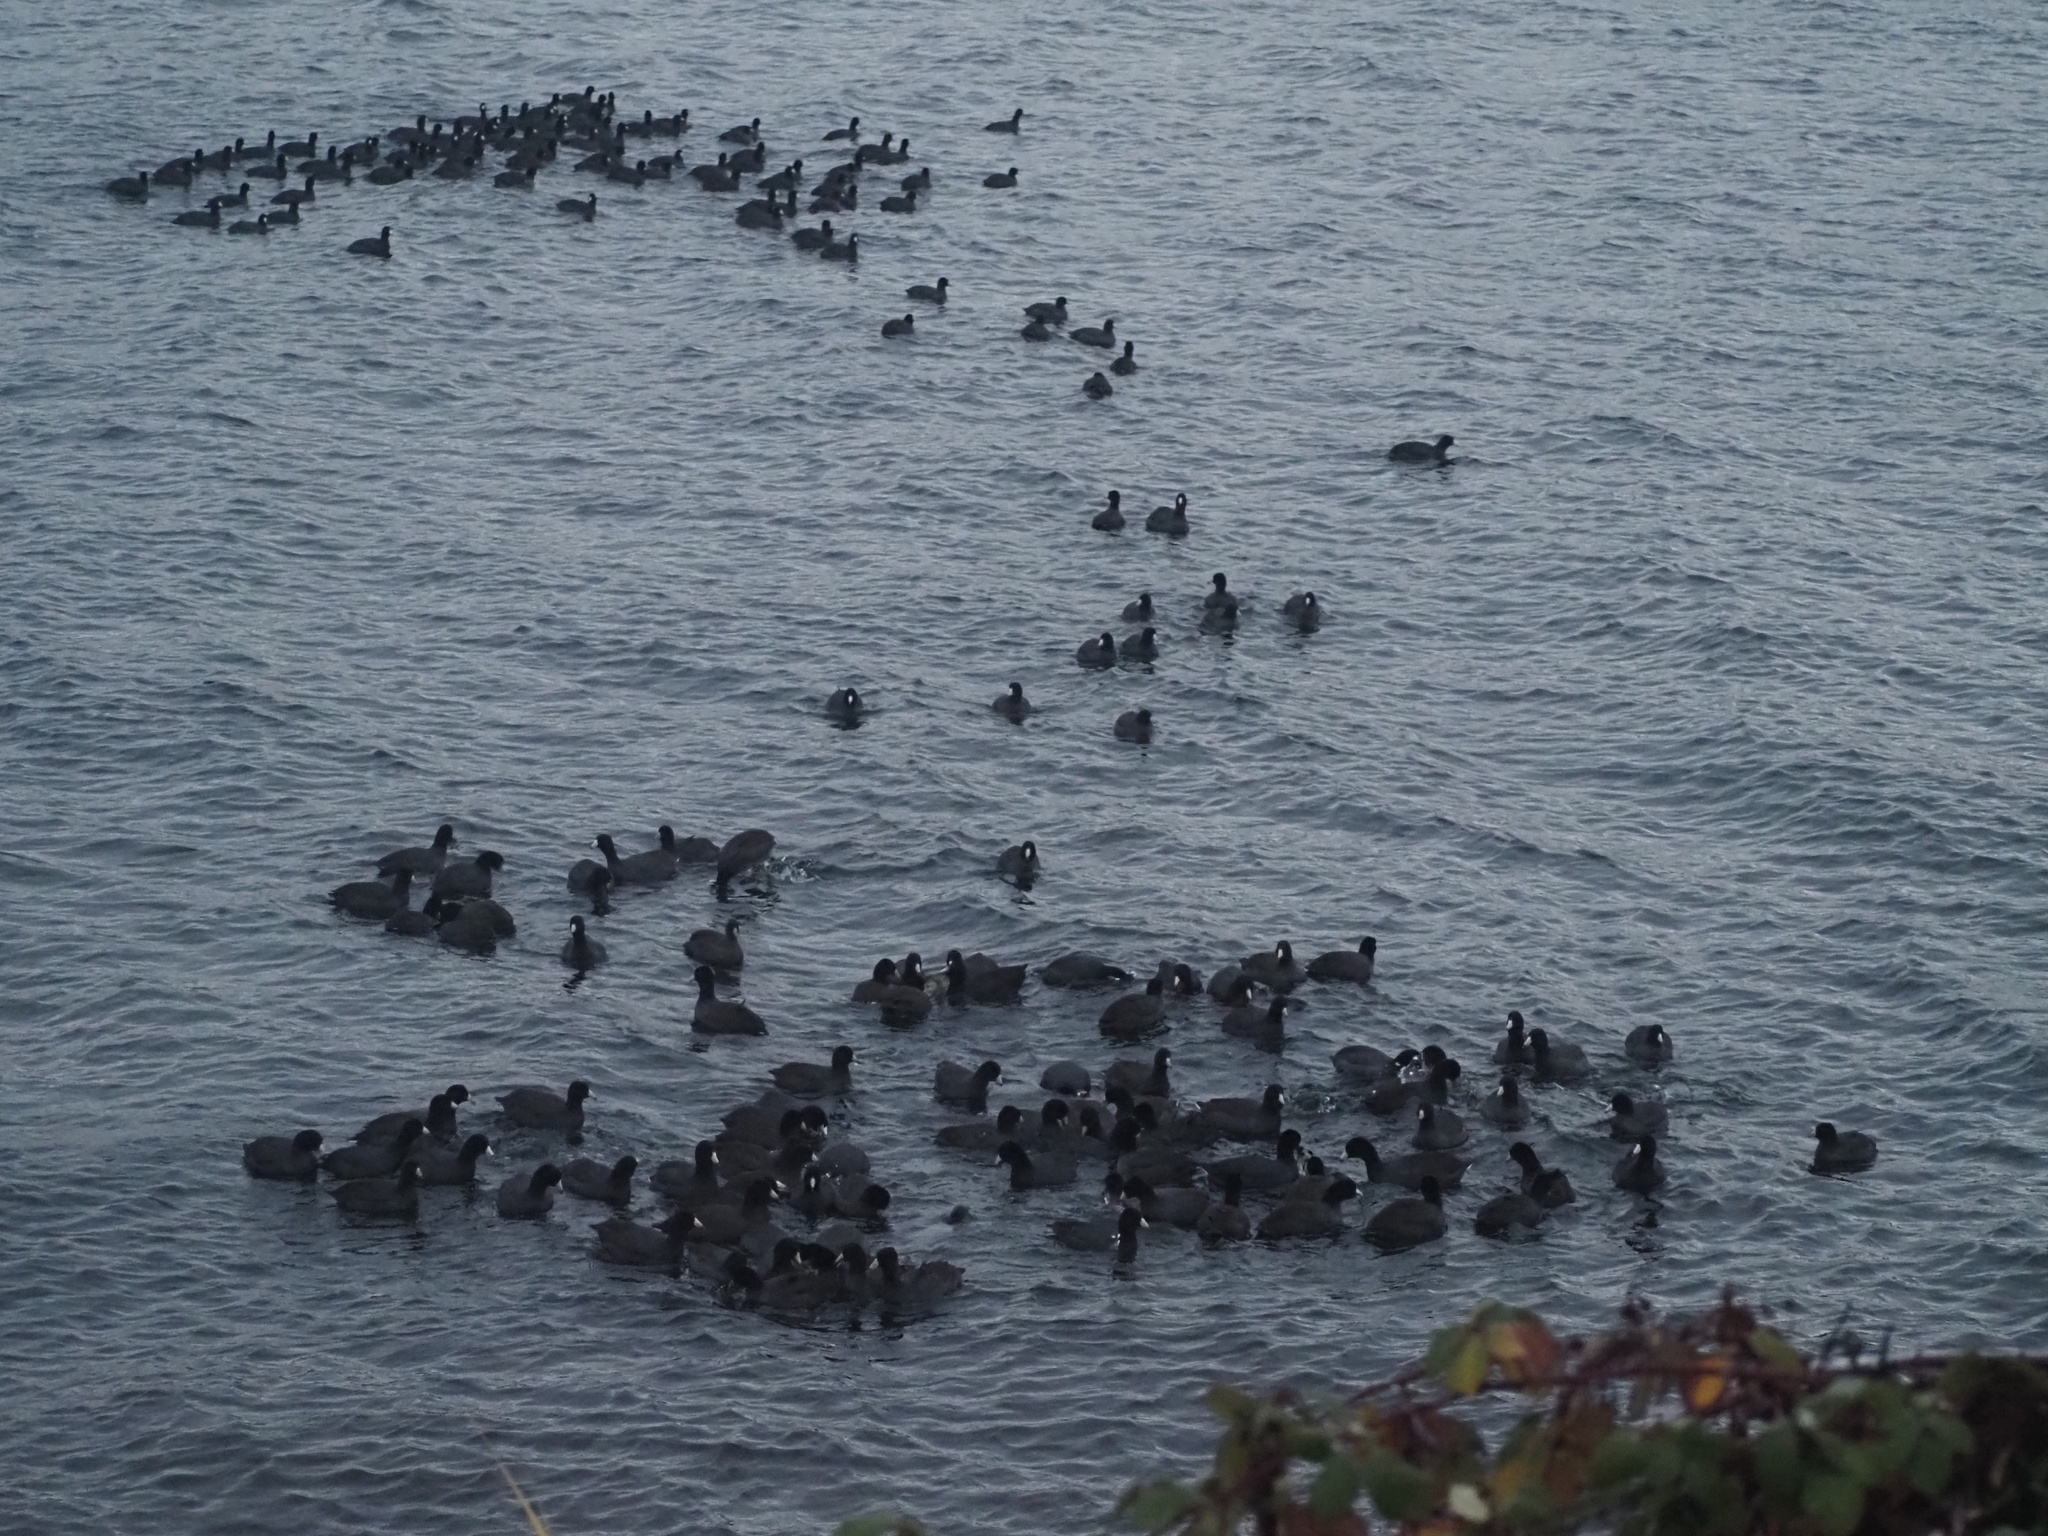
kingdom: Animalia
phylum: Chordata
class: Aves
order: Gruiformes
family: Rallidae
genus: Fulica
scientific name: Fulica americana
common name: American coot
